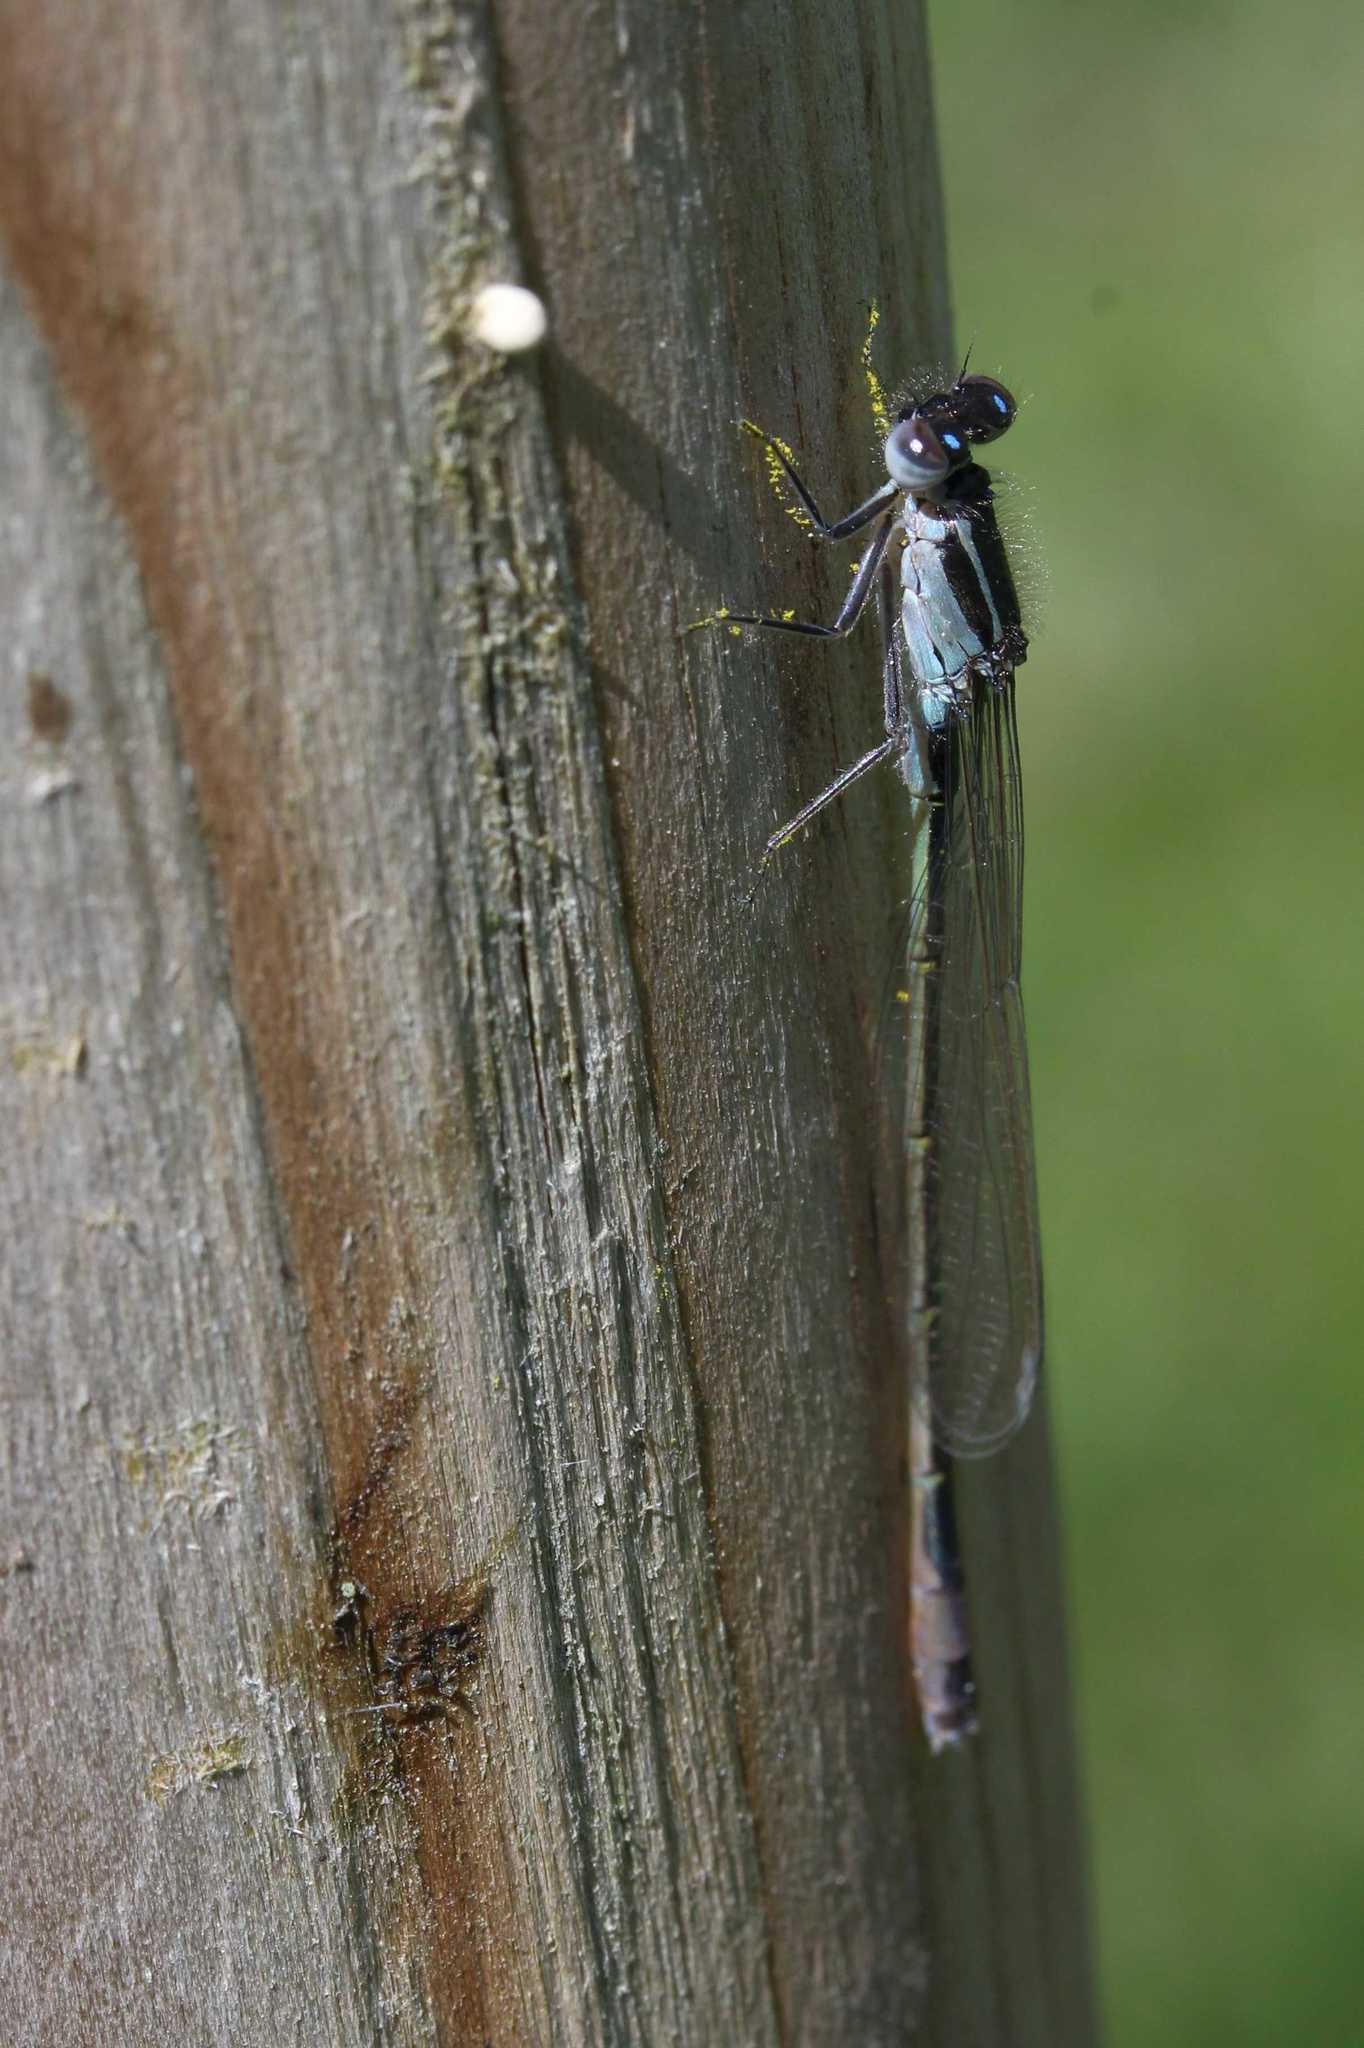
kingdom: Animalia
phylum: Arthropoda
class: Insecta
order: Odonata
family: Coenagrionidae
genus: Ischnura
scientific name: Ischnura elegans
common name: Blue-tailed damselfly
